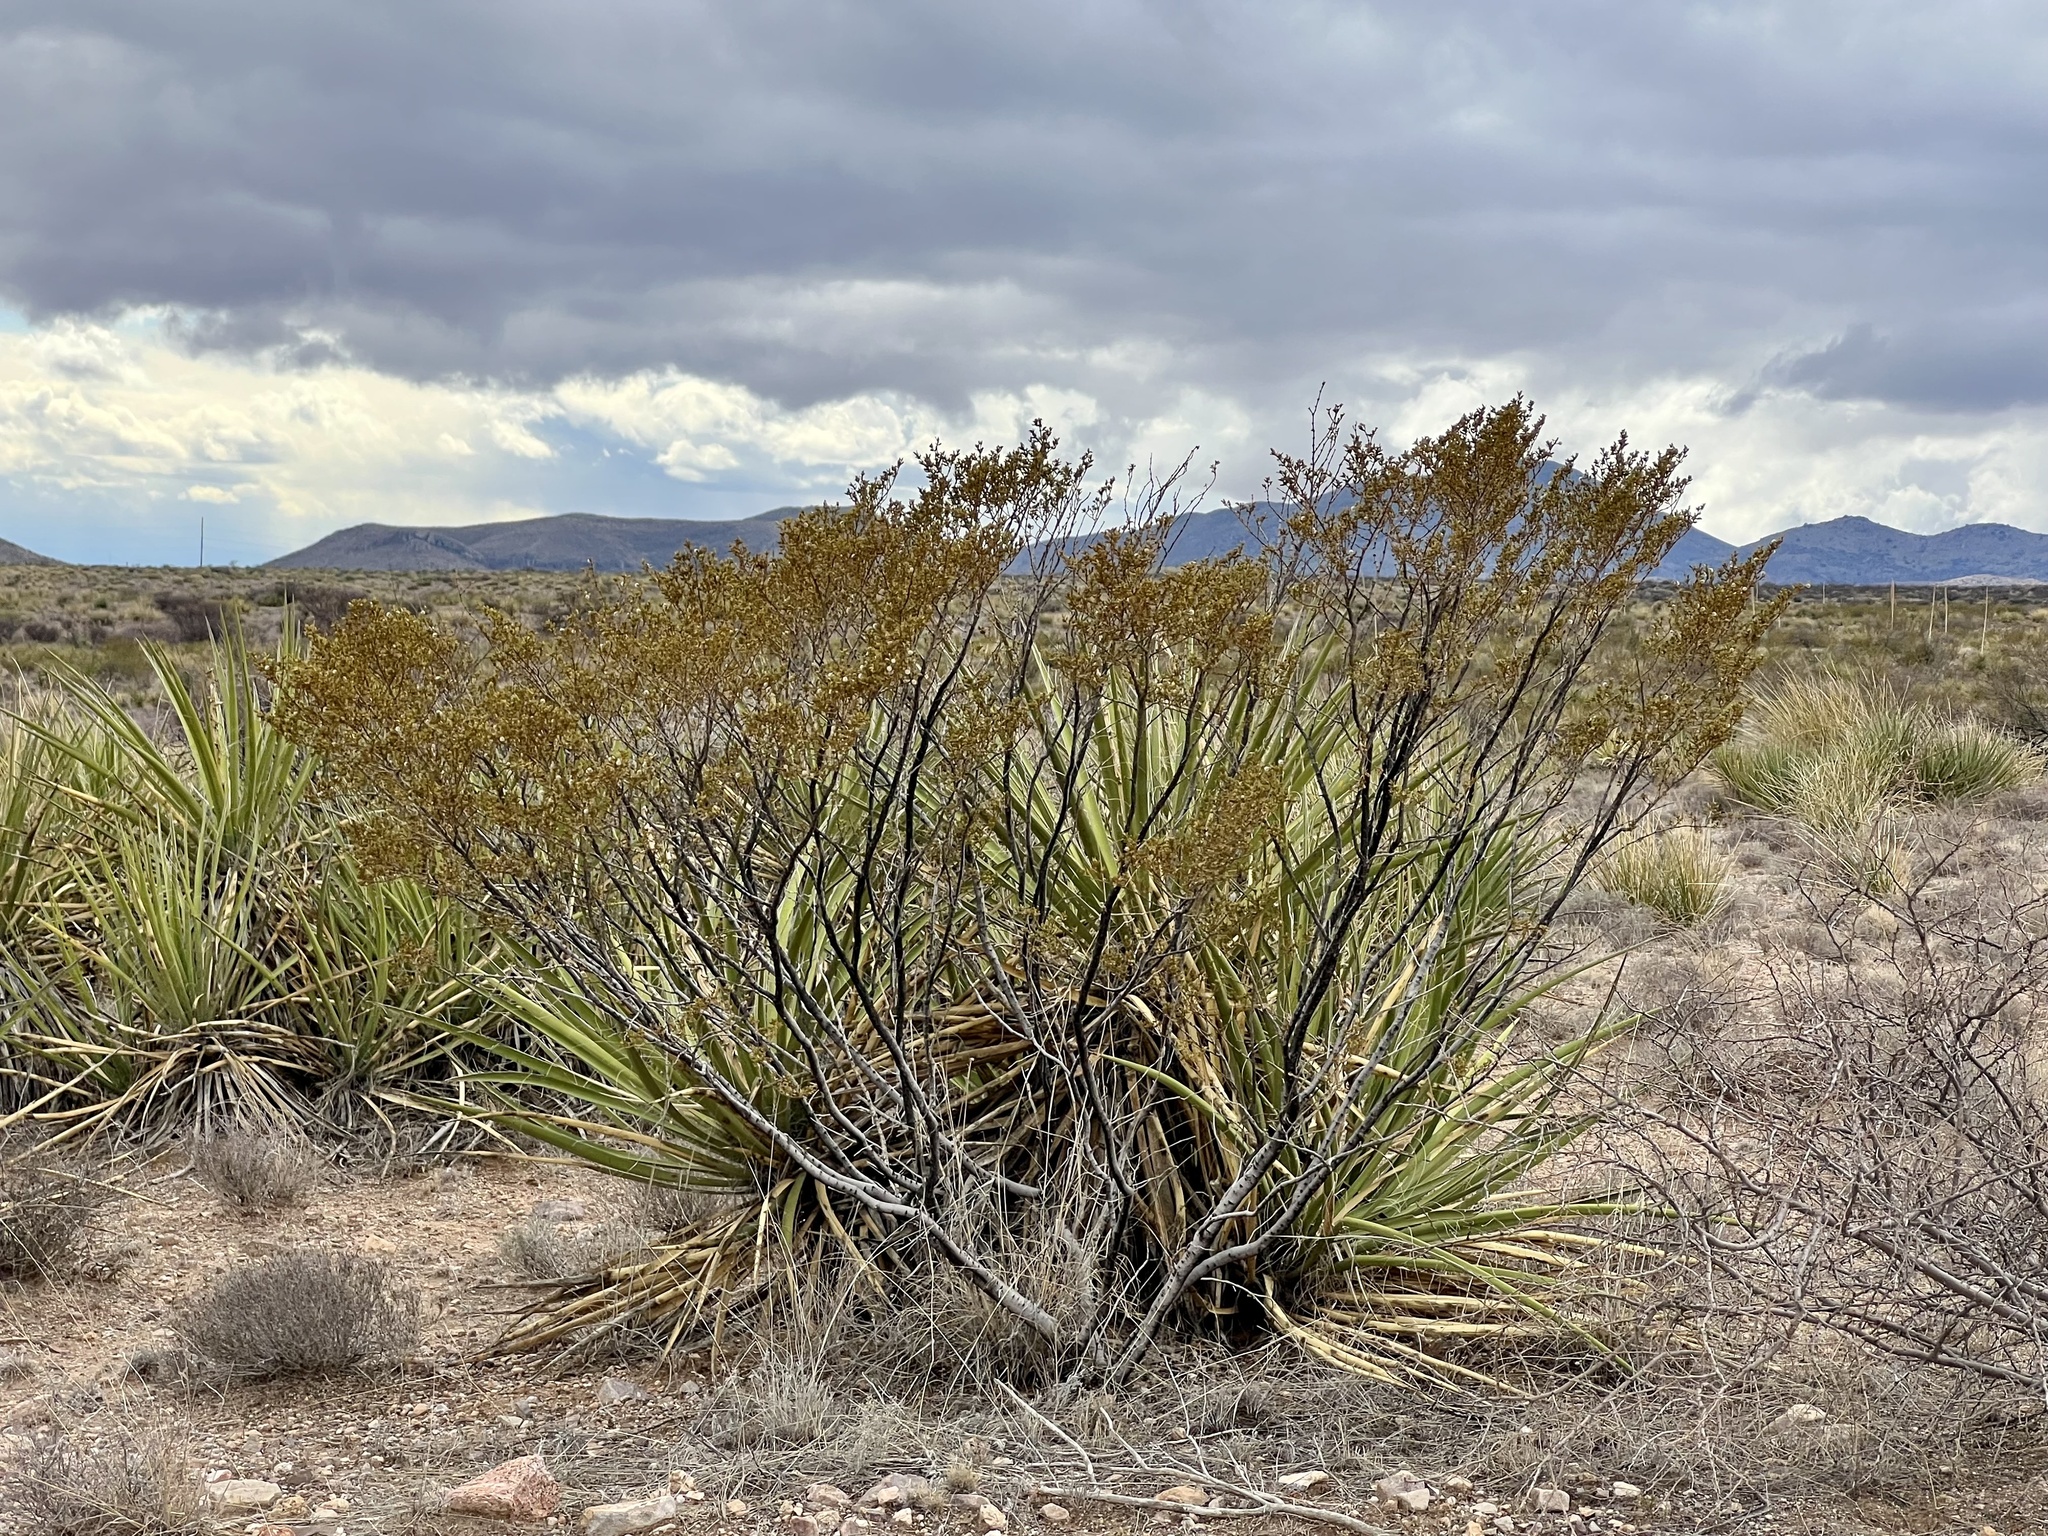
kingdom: Plantae
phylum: Tracheophyta
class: Magnoliopsida
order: Zygophyllales
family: Zygophyllaceae
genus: Larrea
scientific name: Larrea tridentata
